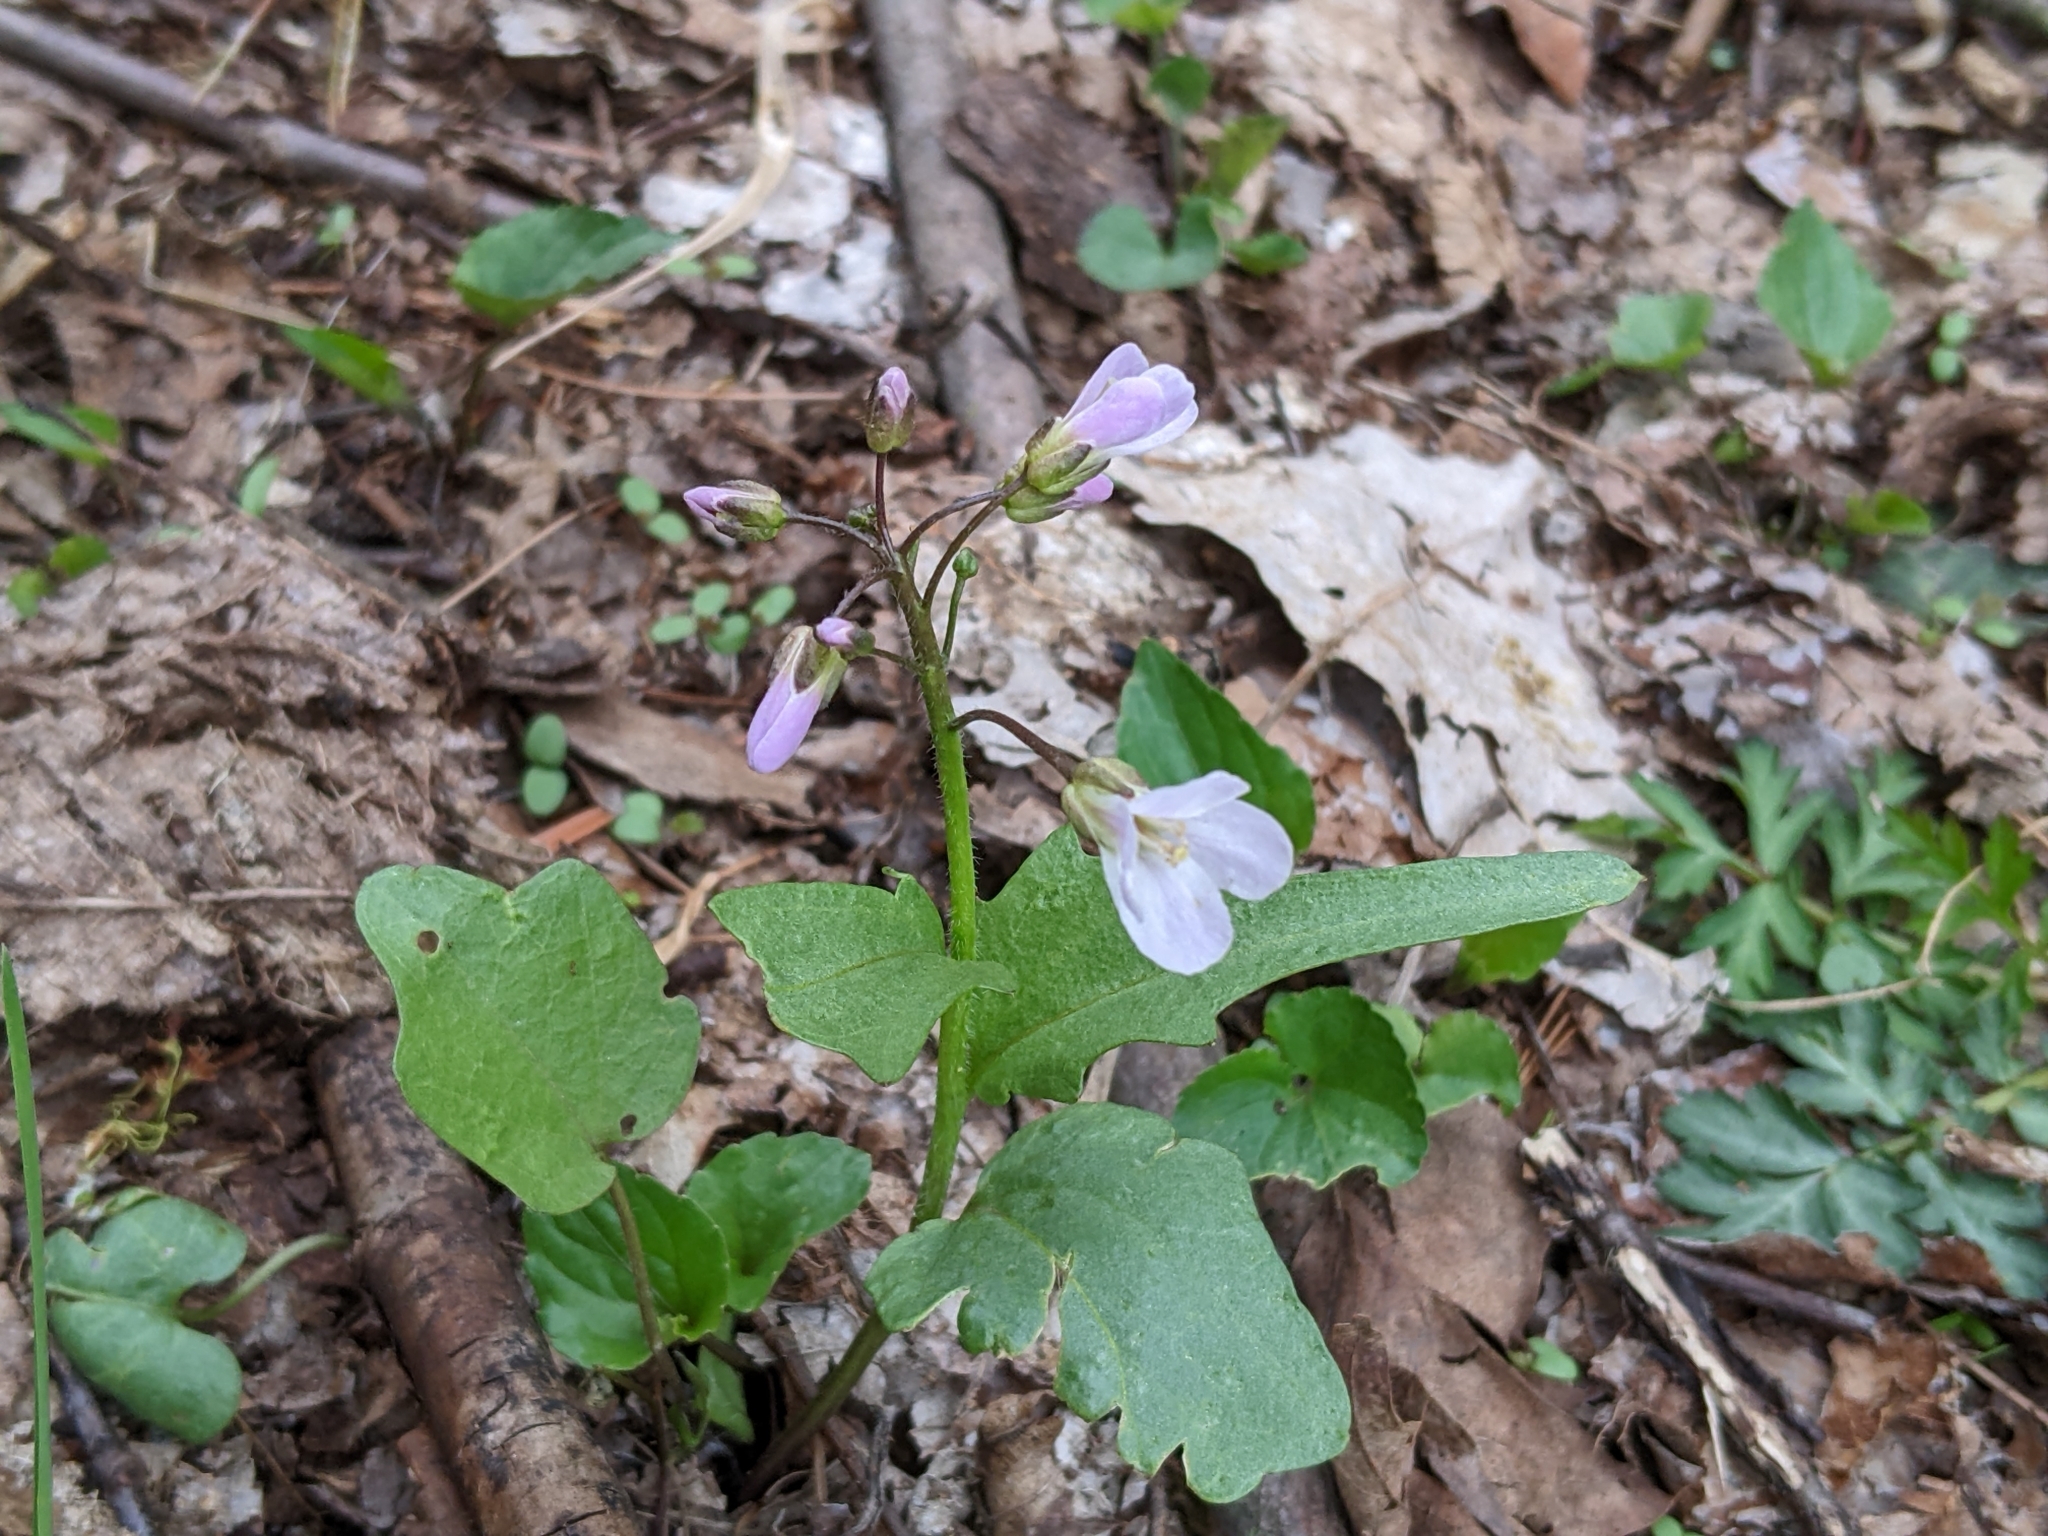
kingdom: Plantae
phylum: Tracheophyta
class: Magnoliopsida
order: Brassicales
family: Brassicaceae
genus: Cardamine
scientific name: Cardamine douglassii
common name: Purple cress
